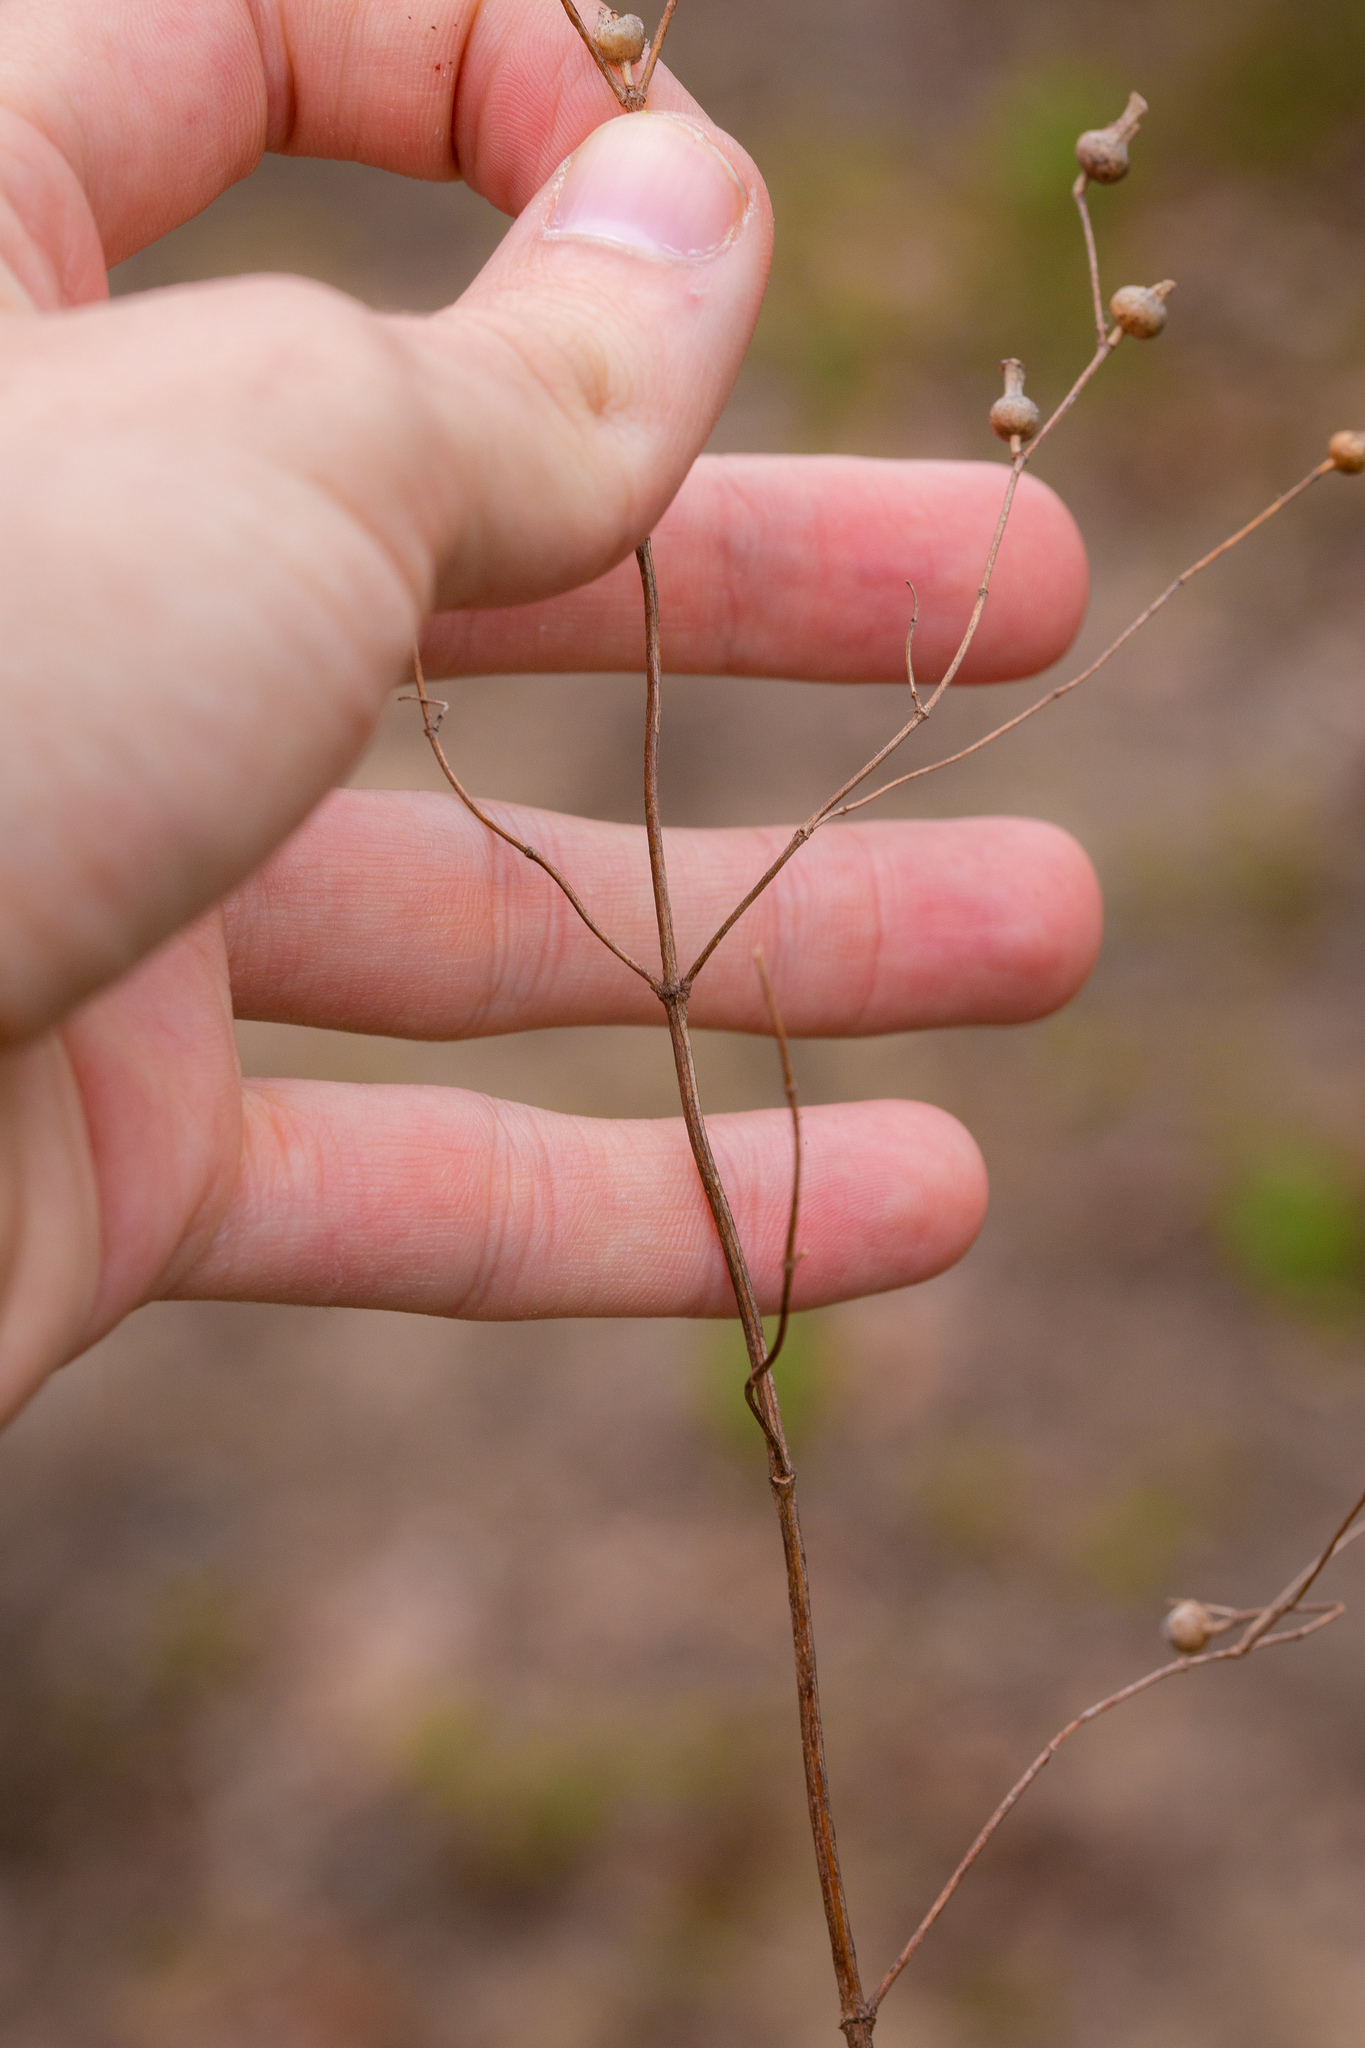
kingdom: Plantae
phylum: Tracheophyta
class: Magnoliopsida
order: Myrtales
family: Melastomataceae
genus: Rhexia
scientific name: Rhexia mariana
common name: Dull meadow-pitcher
